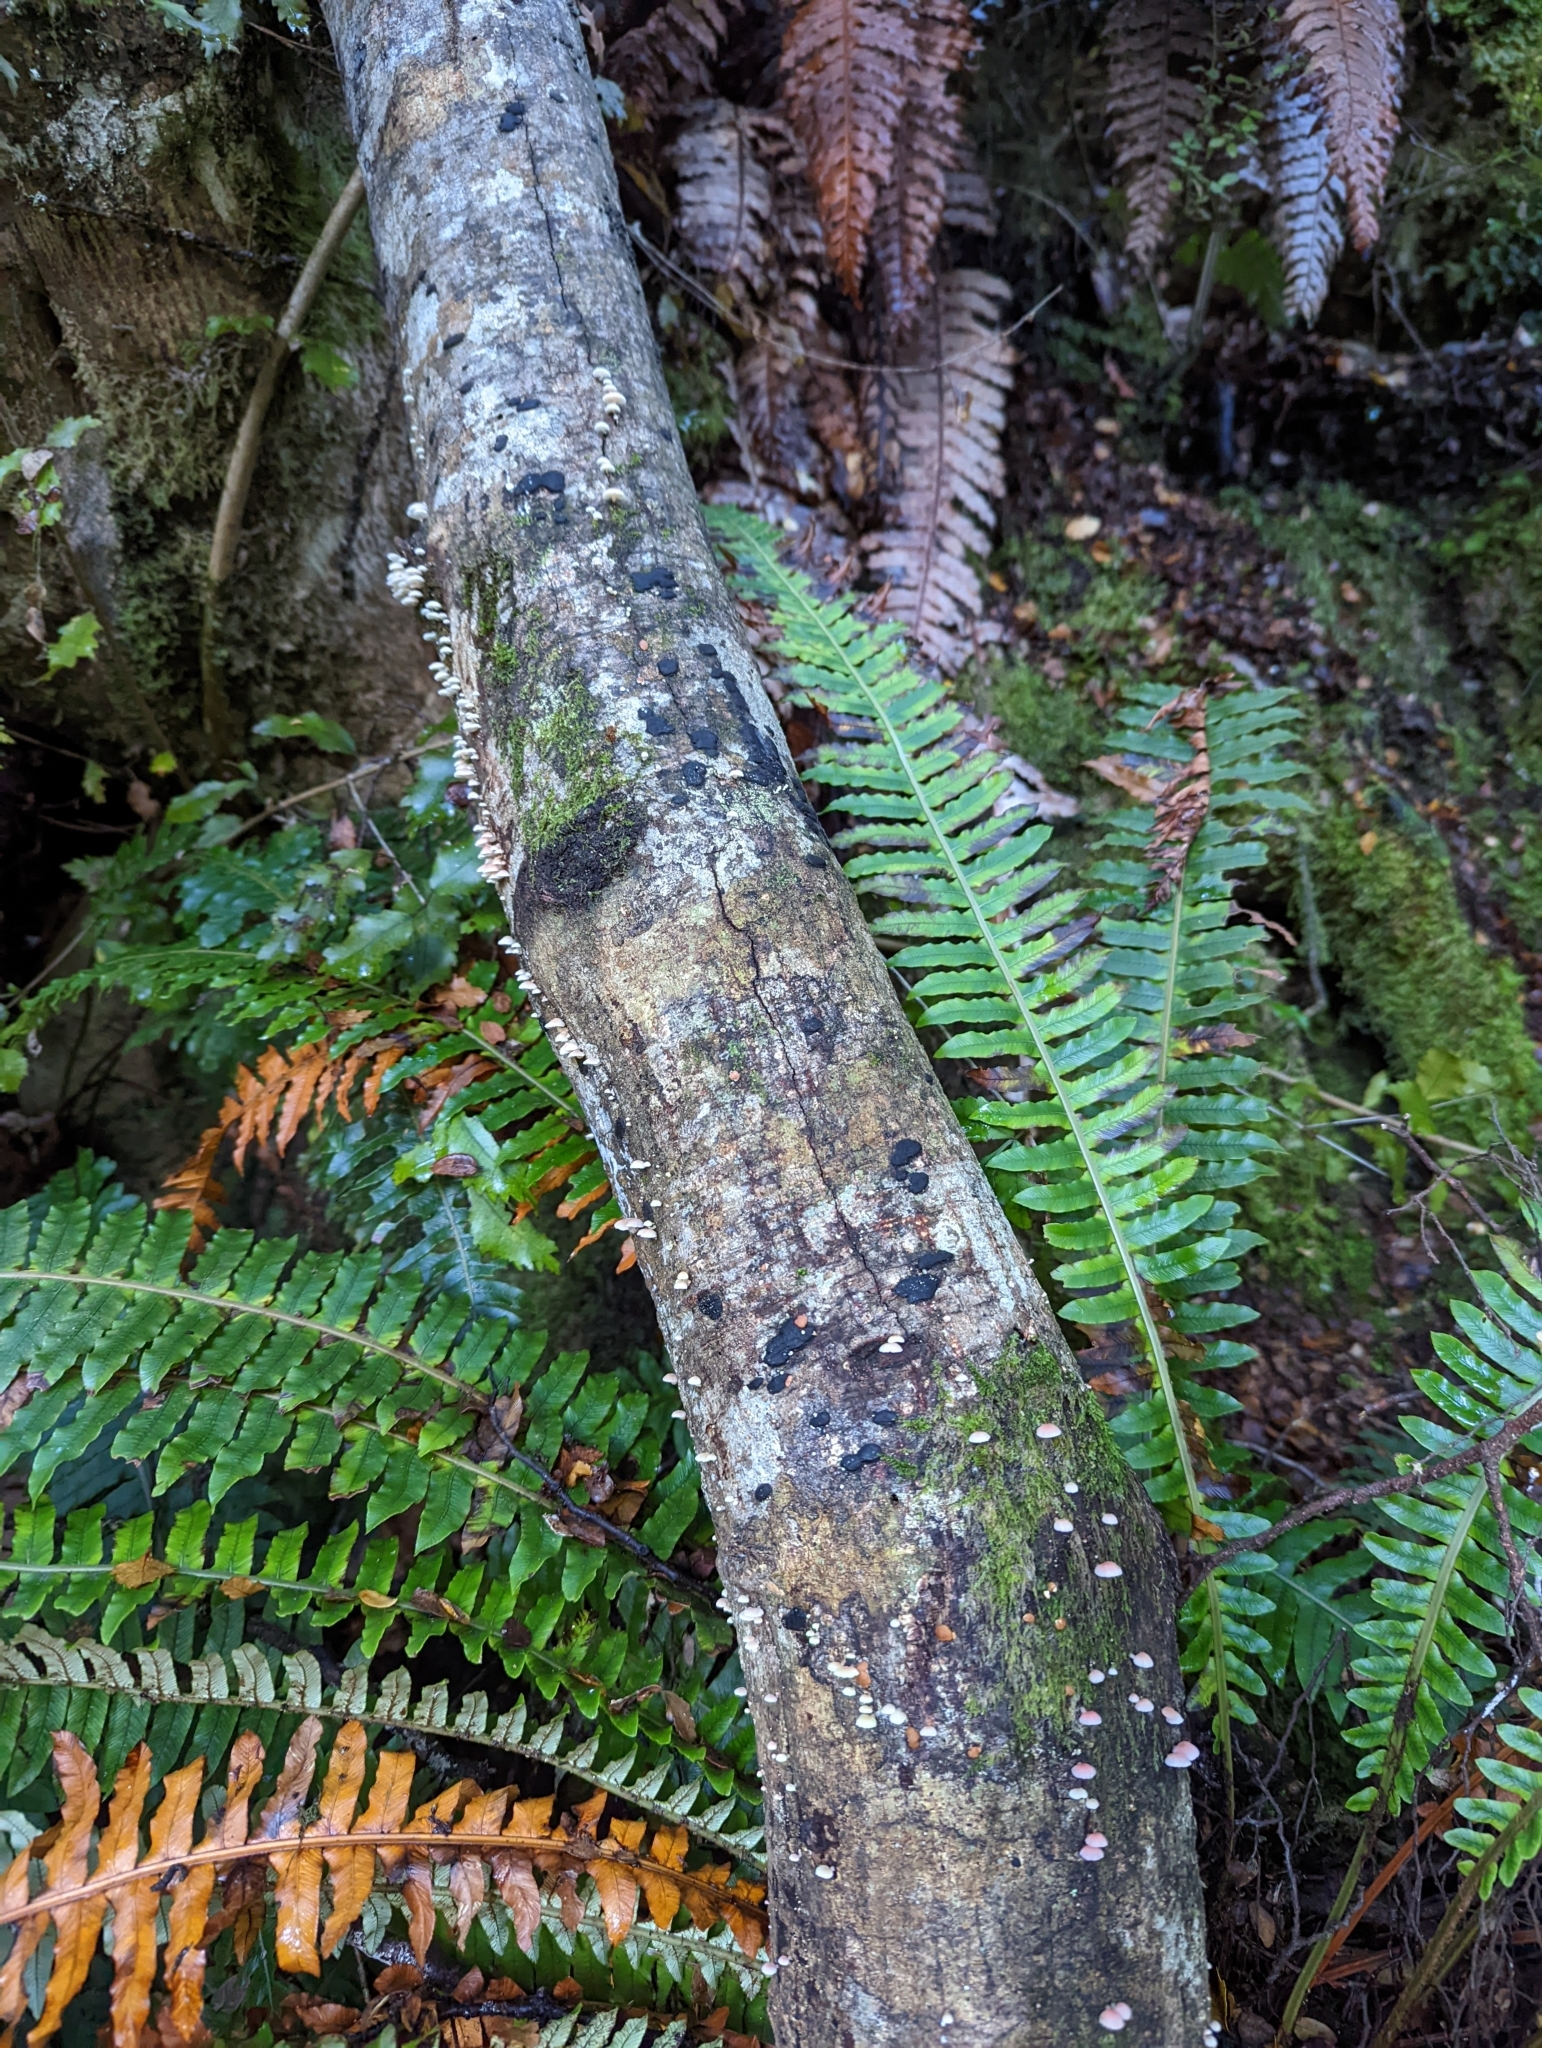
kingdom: Fungi
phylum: Basidiomycota
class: Agaricomycetes
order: Agaricales
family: Mycenaceae
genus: Mycena
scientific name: Mycena roseoflava
